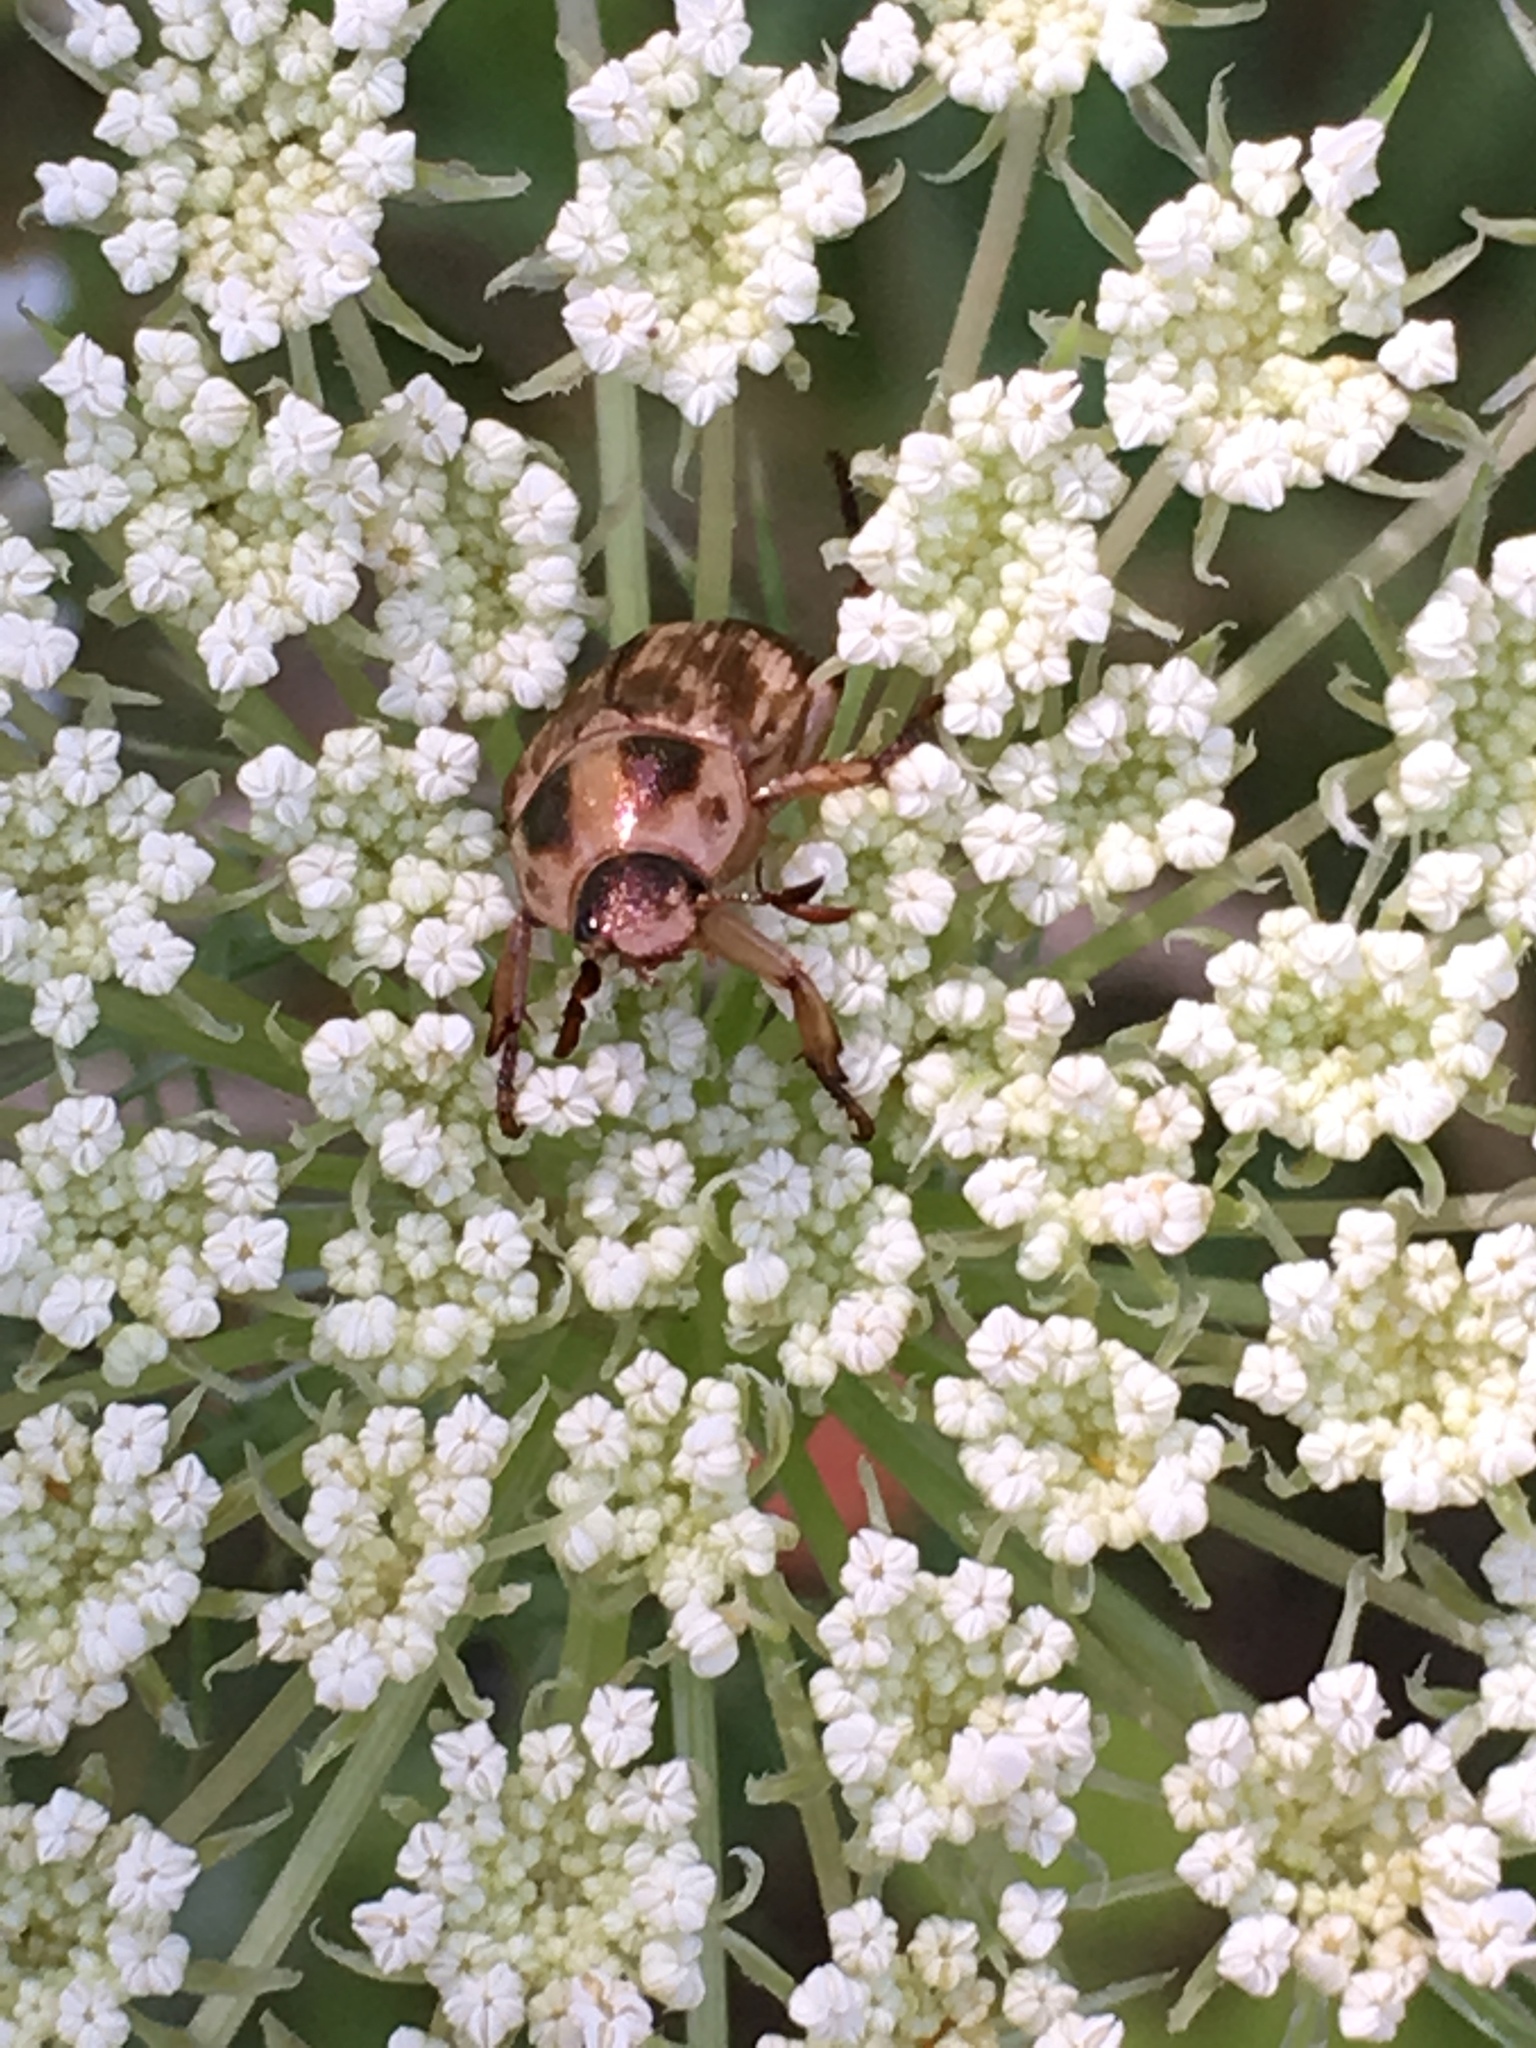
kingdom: Animalia
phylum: Arthropoda
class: Insecta
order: Coleoptera
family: Scarabaeidae
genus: Exomala
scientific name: Exomala orientalis
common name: Oriental beetle
